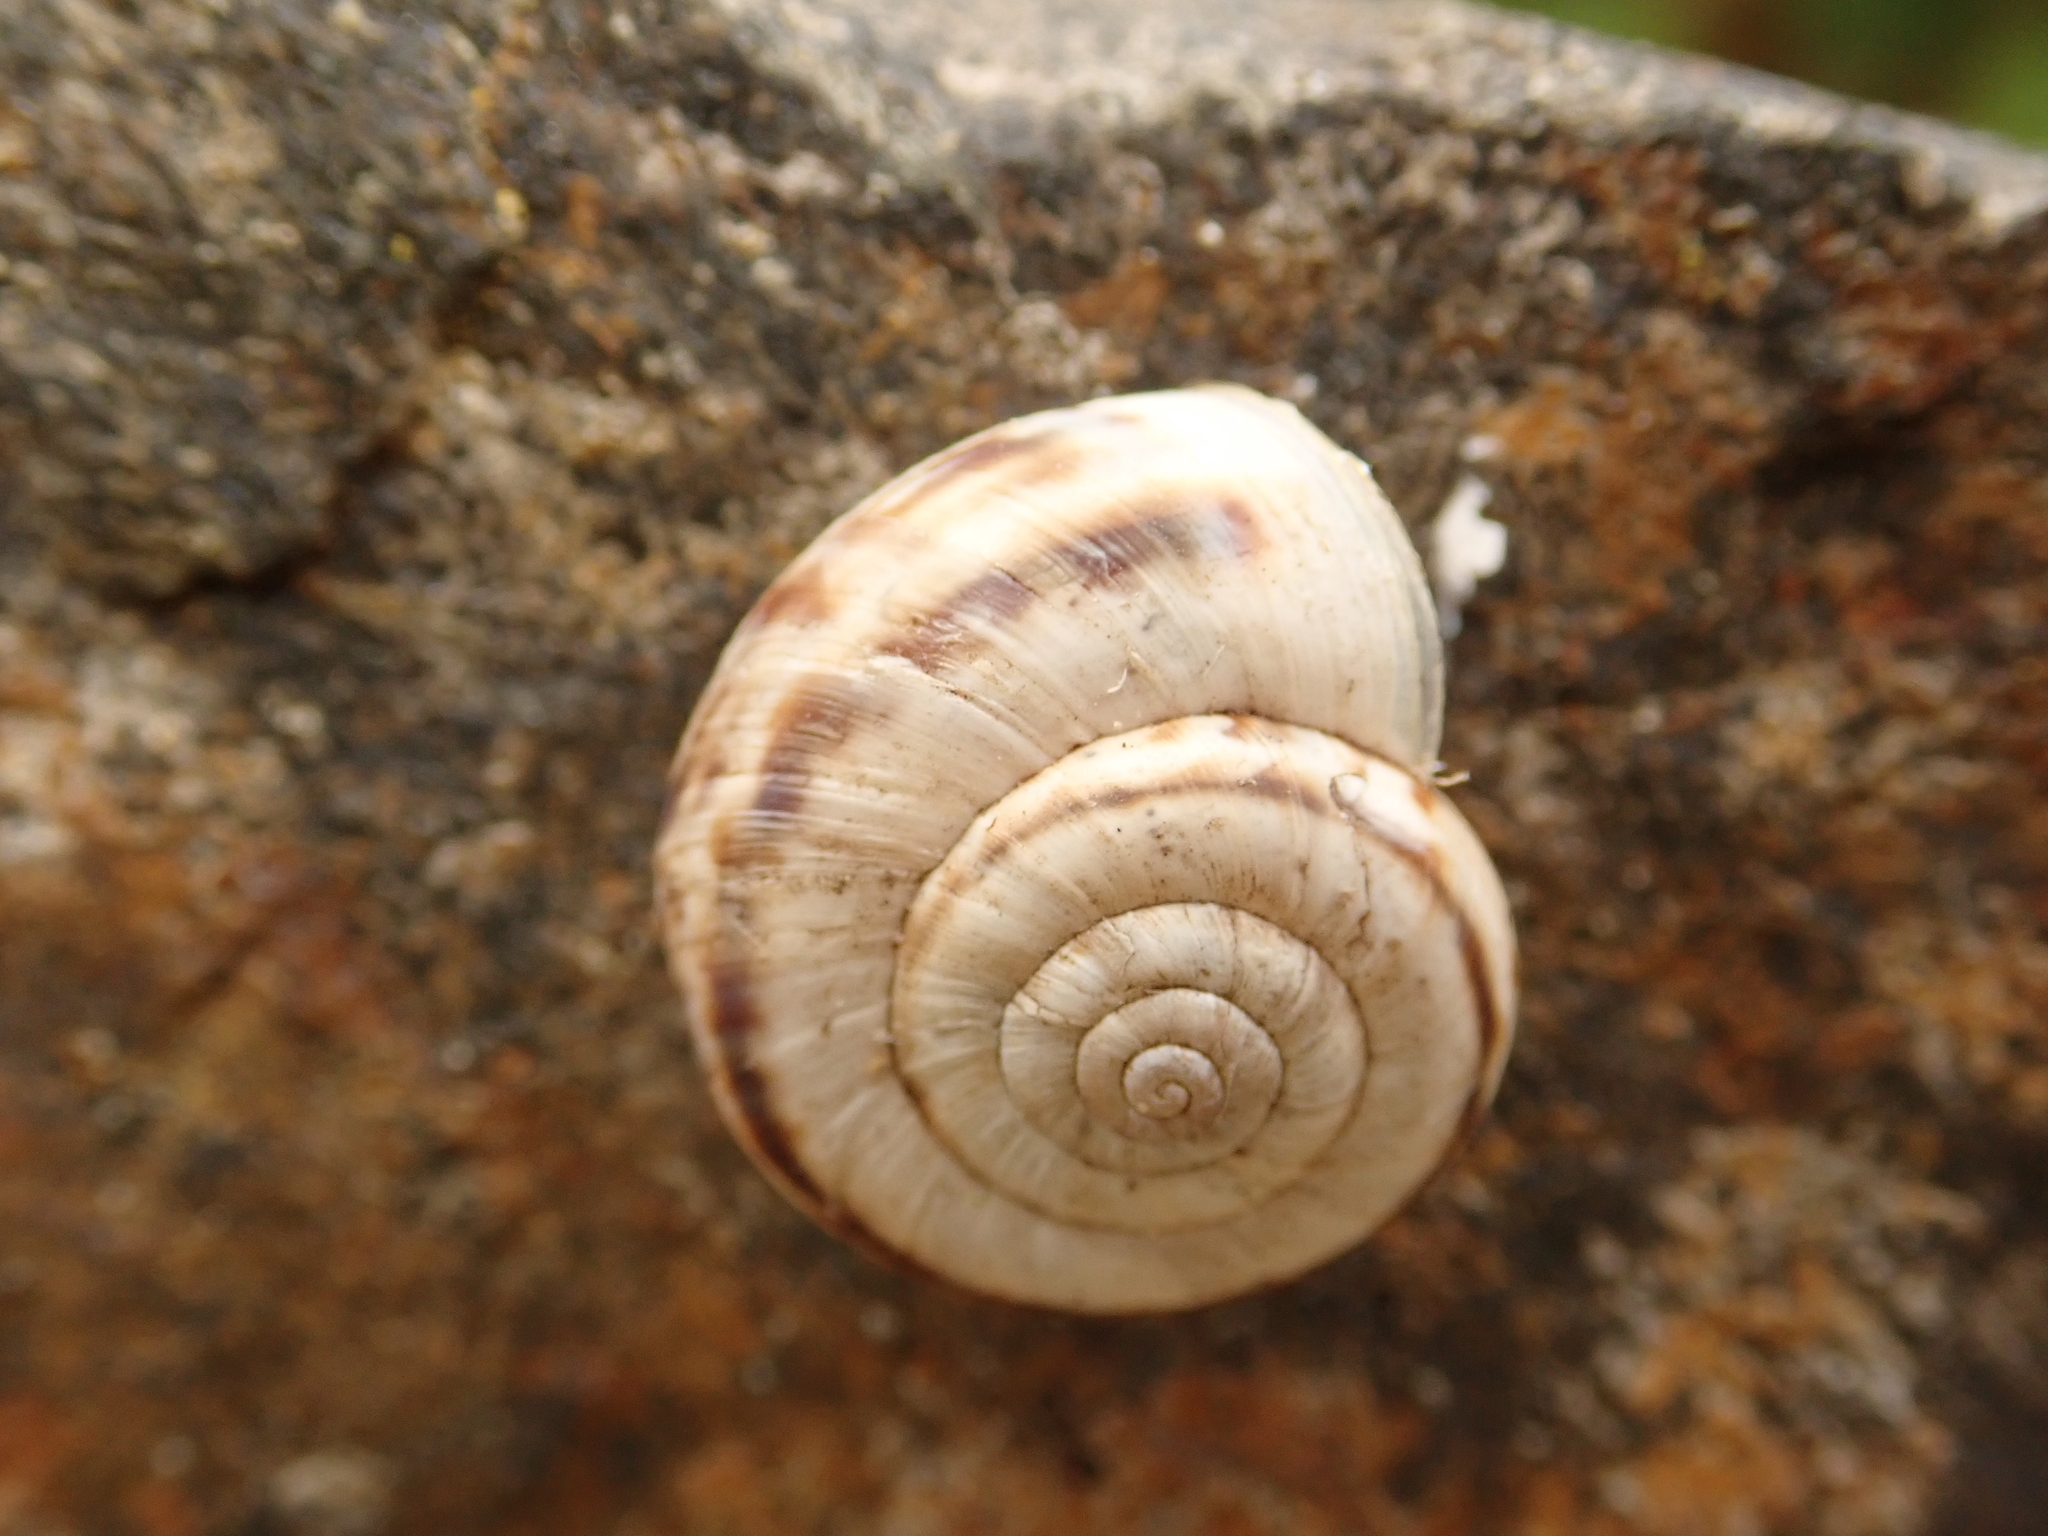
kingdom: Animalia
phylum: Mollusca
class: Gastropoda
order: Stylommatophora
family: Geomitridae
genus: Xerolenta
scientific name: Xerolenta obvia
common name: White heath snail
